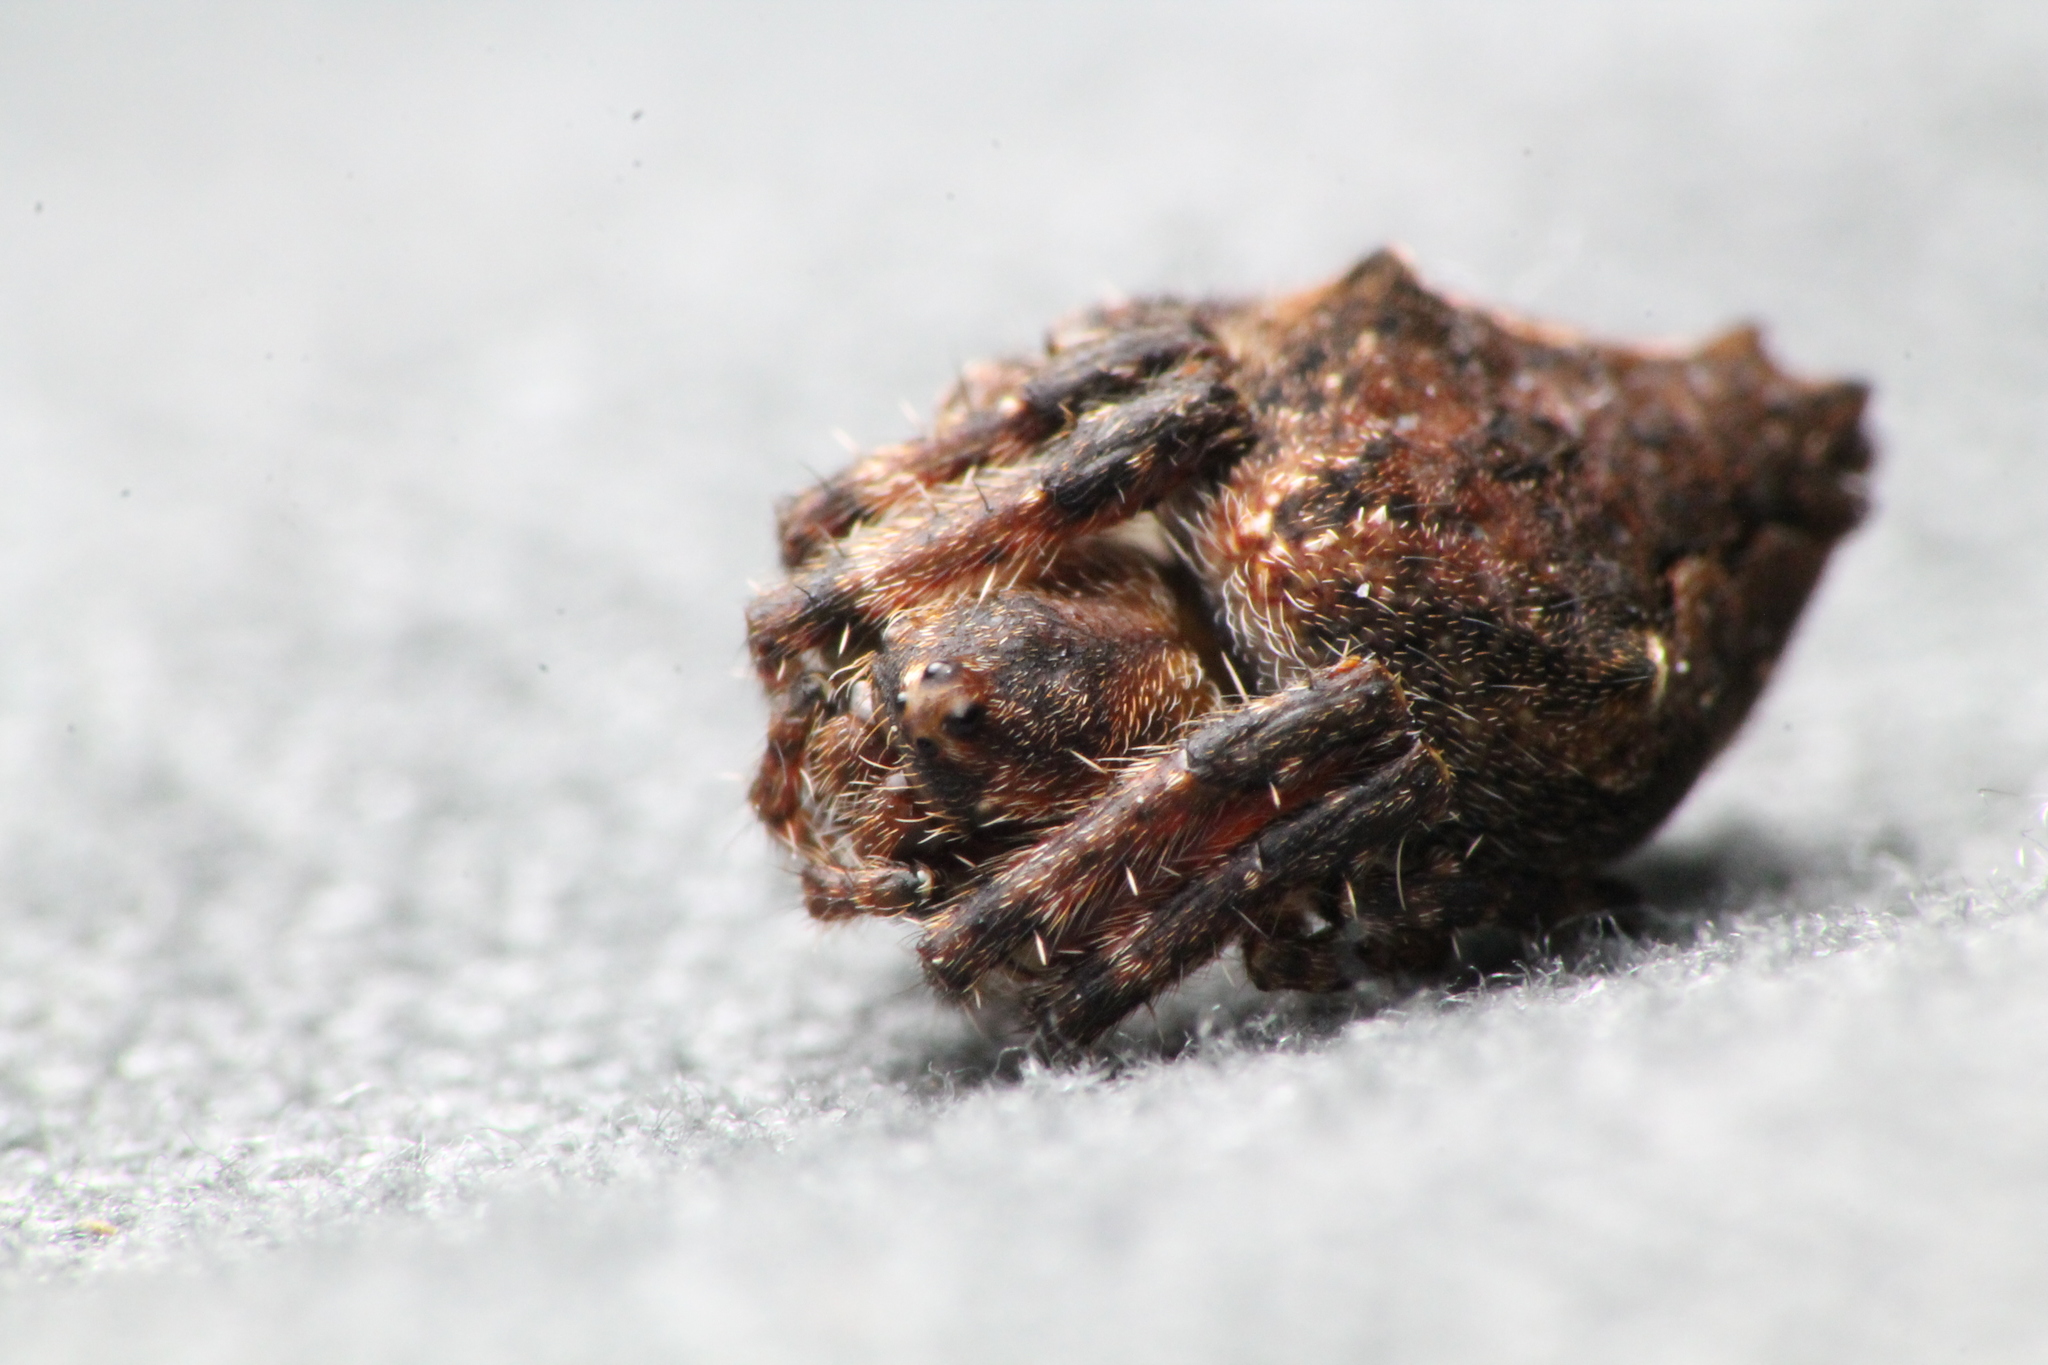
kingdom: Animalia
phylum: Arthropoda
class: Arachnida
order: Araneae
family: Araneidae
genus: Eriophora
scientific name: Eriophora pustulosa
